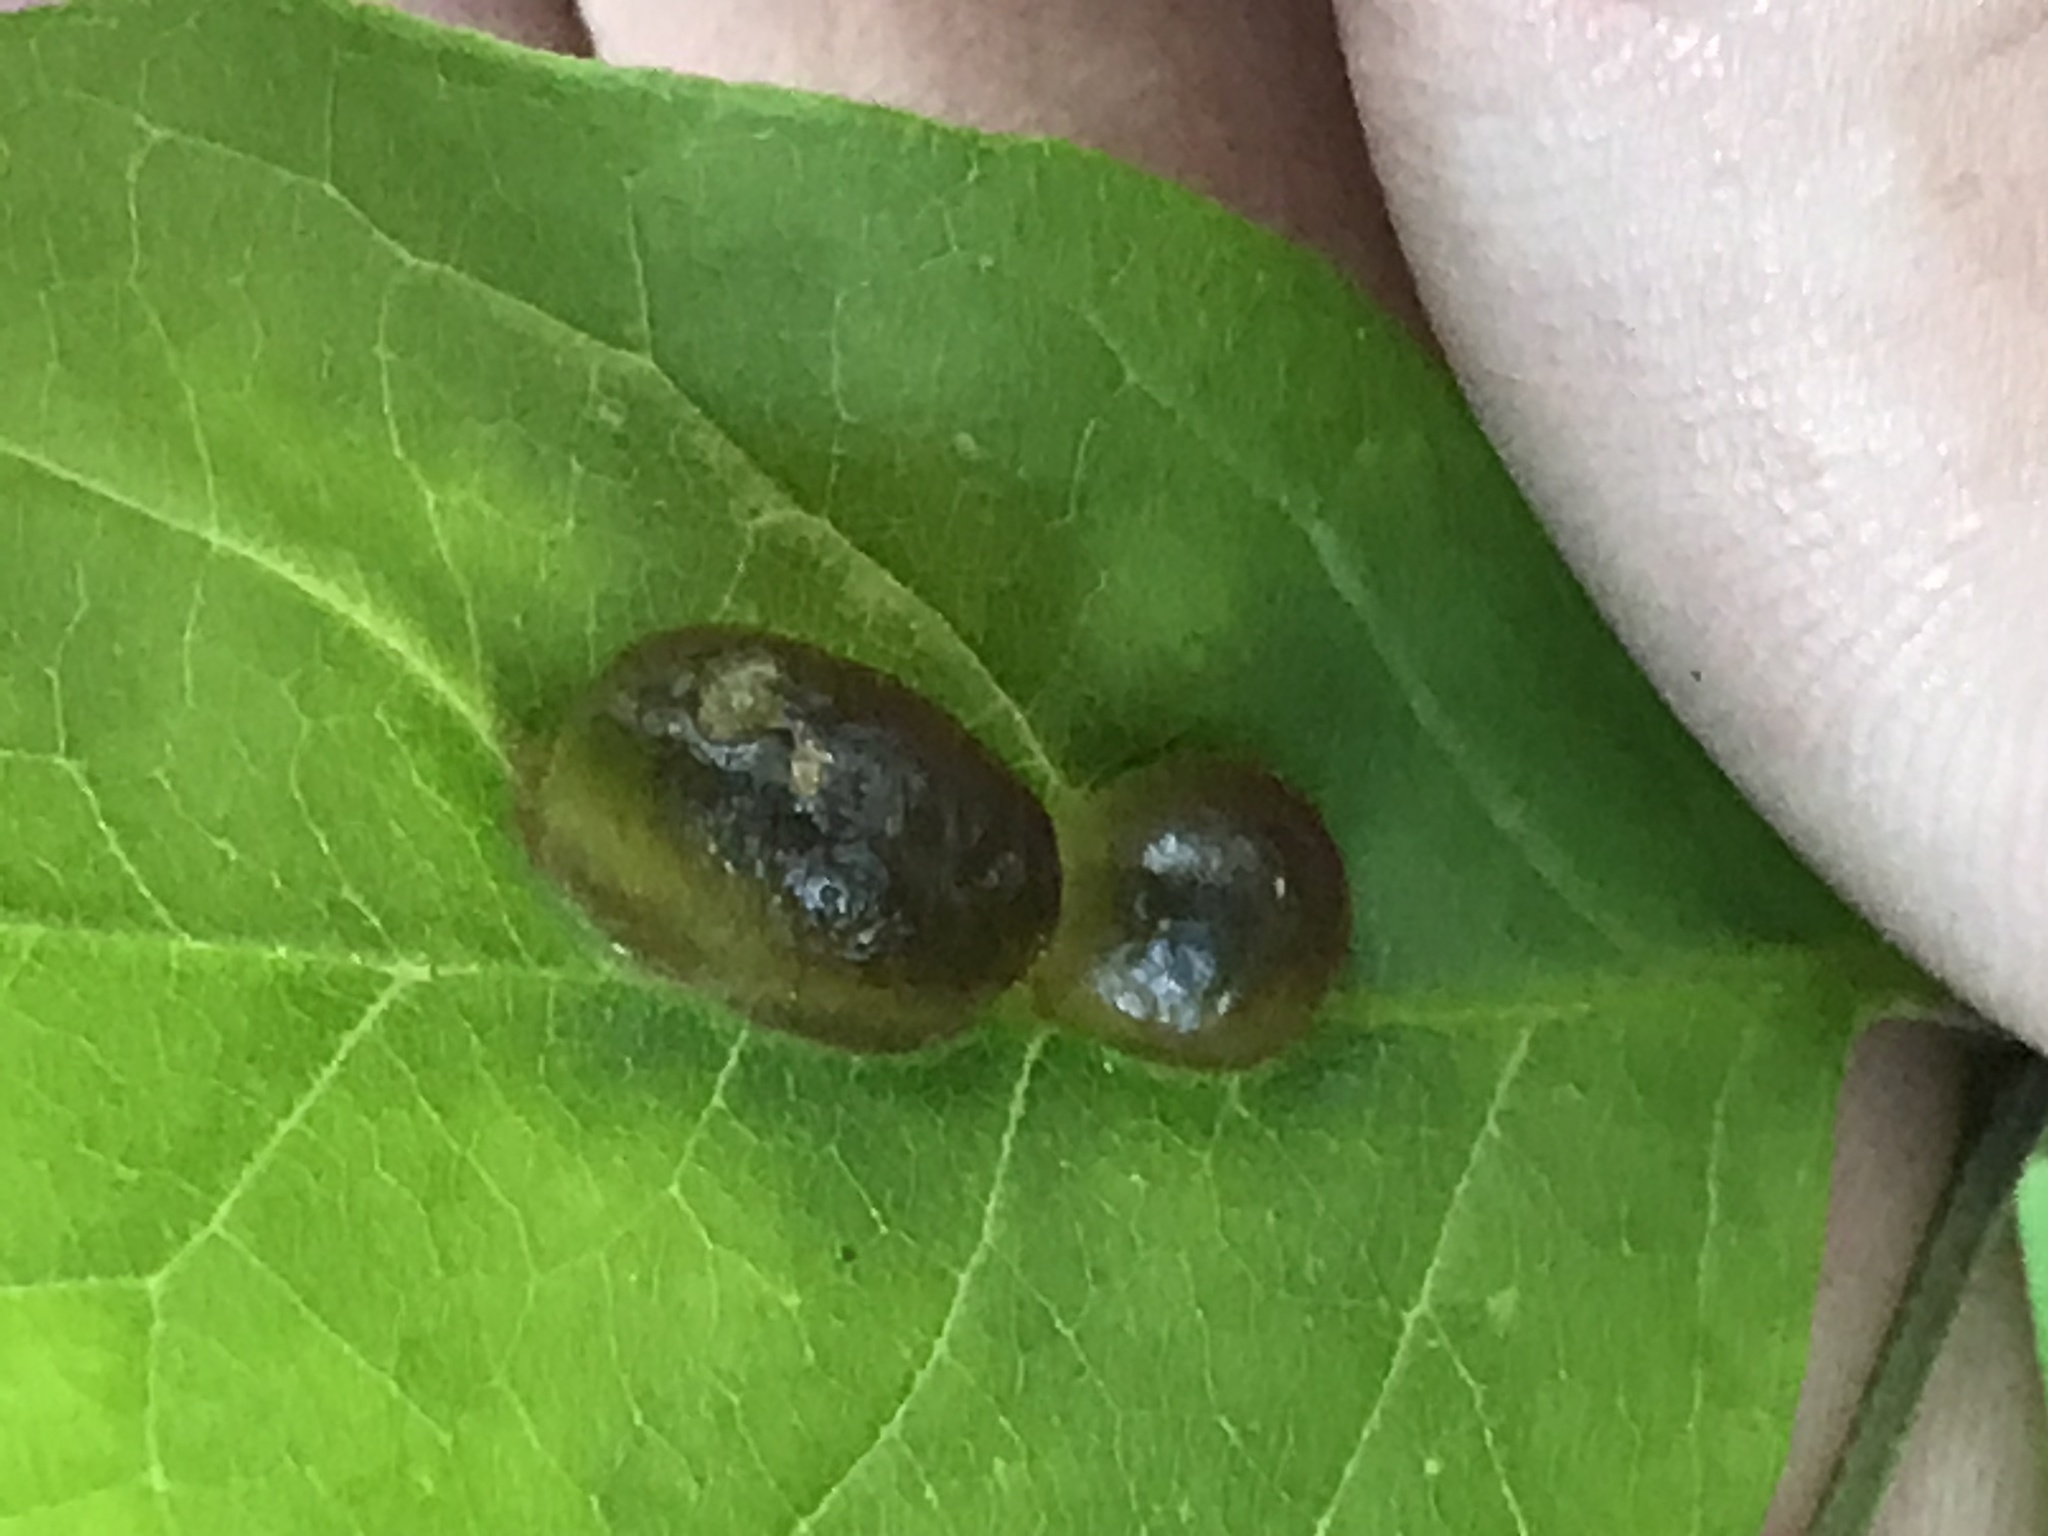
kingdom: Animalia
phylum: Arthropoda
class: Insecta
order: Diptera
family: Cecidomyiidae
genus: Dasineura
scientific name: Dasineura pellex
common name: Ash bullet gall midge
